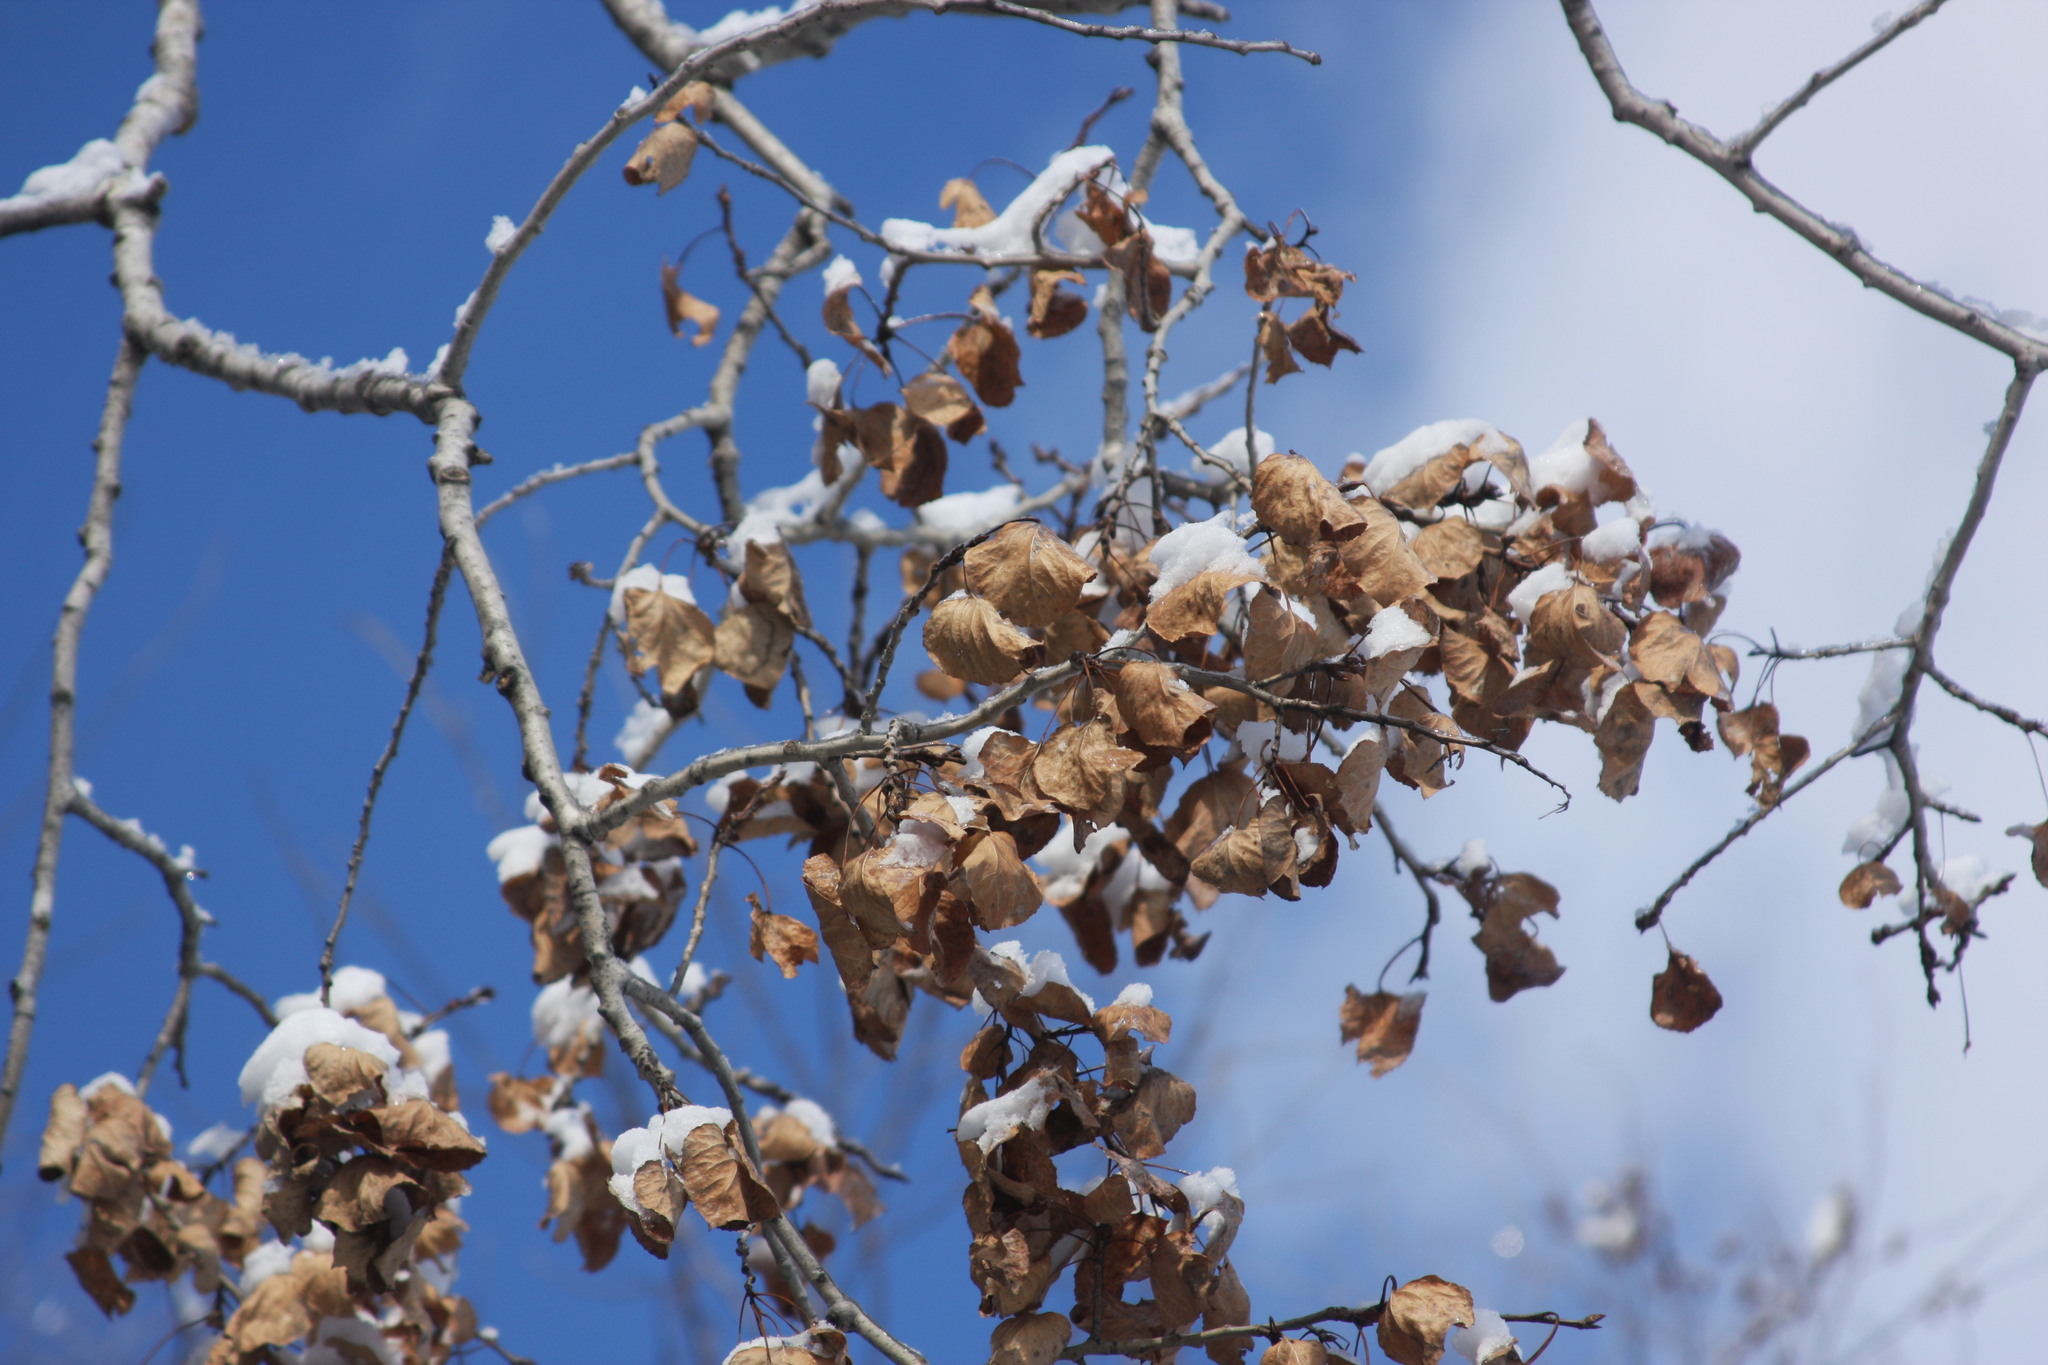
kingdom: Plantae
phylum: Tracheophyta
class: Magnoliopsida
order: Malpighiales
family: Salicaceae
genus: Populus
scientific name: Populus tremuloides
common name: Quaking aspen
